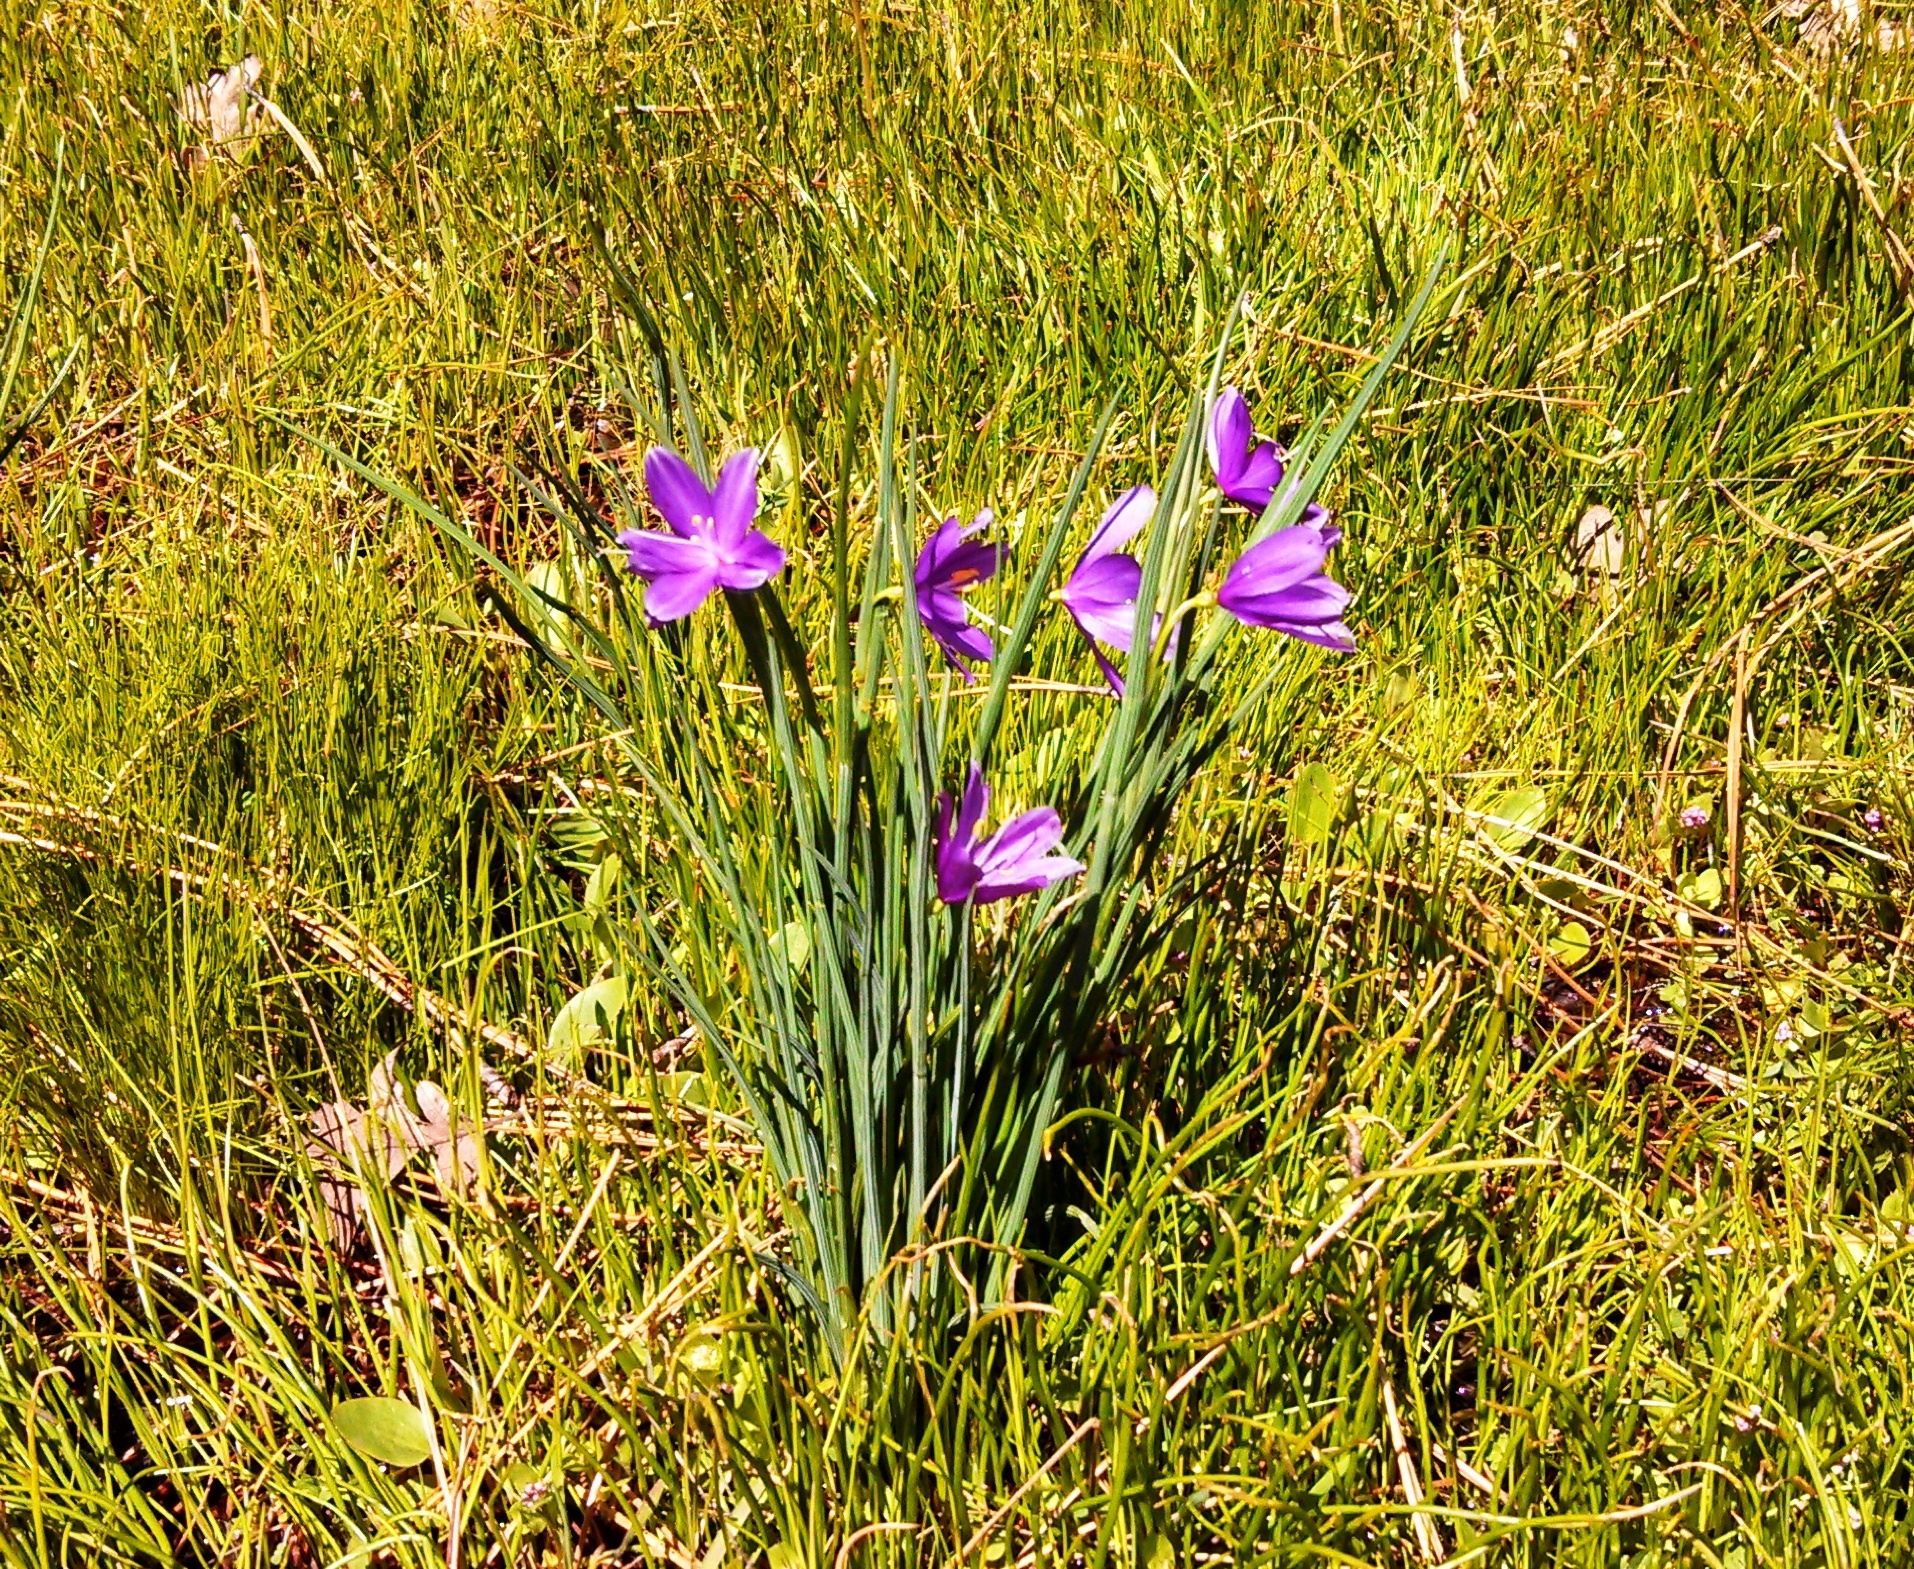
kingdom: Plantae
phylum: Tracheophyta
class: Liliopsida
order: Asparagales
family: Iridaceae
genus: Olsynium
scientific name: Olsynium douglasii
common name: Douglas' grasswidow
